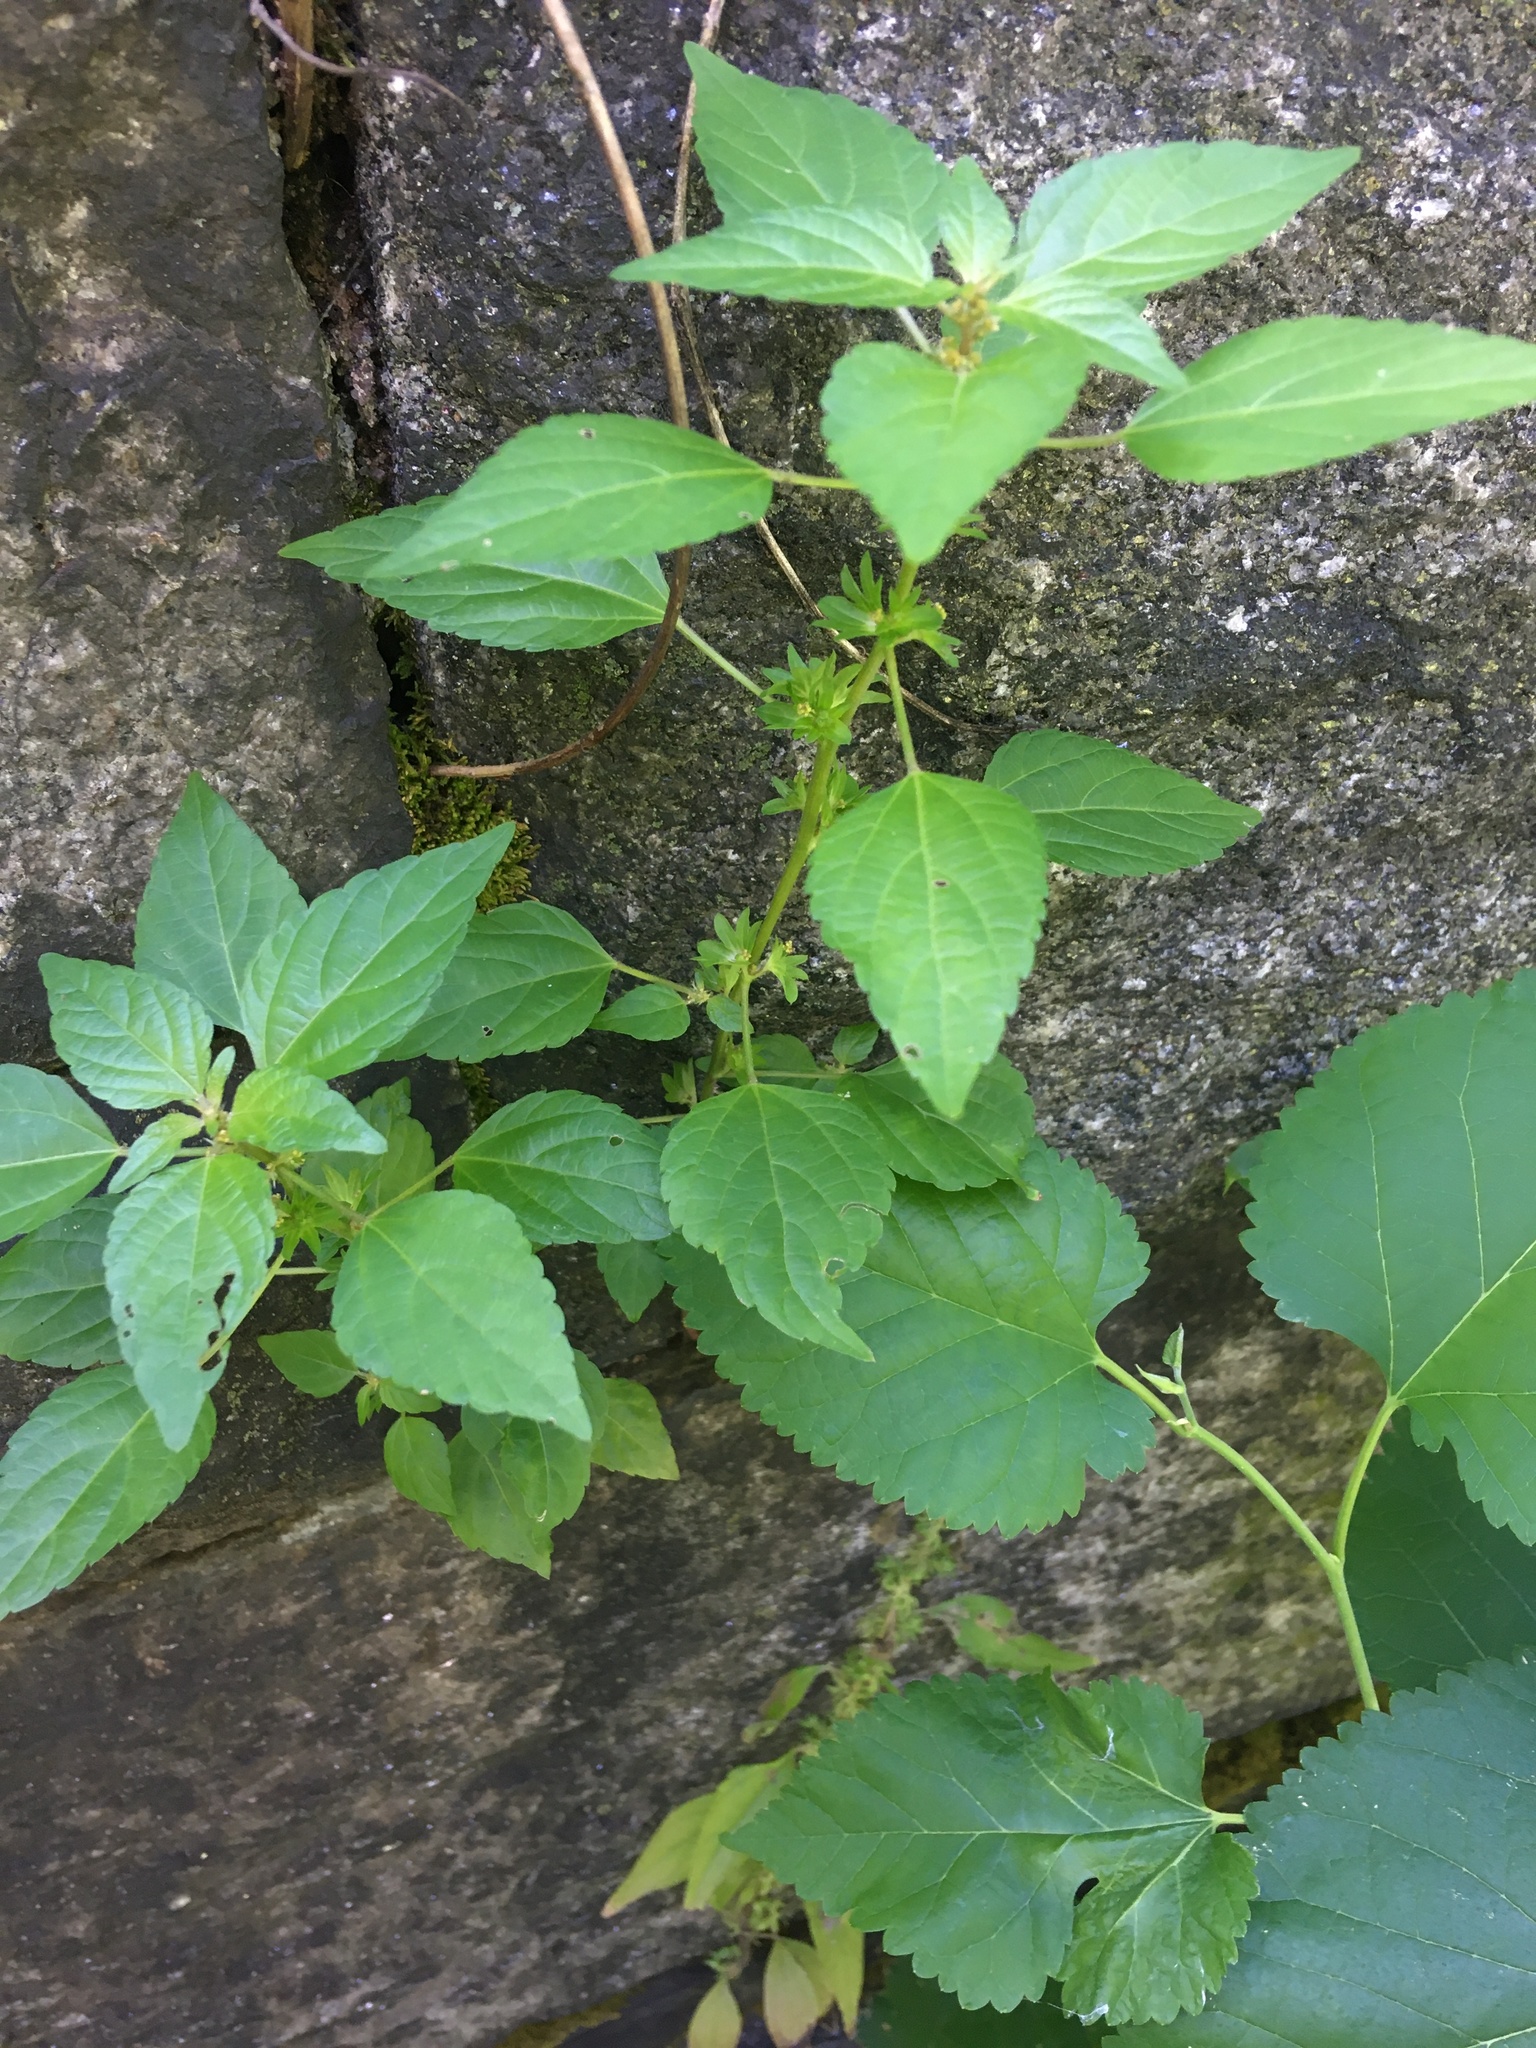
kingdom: Plantae
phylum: Tracheophyta
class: Magnoliopsida
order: Malpighiales
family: Euphorbiaceae
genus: Acalypha
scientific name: Acalypha rhomboidea
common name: Rhombic copperleaf
